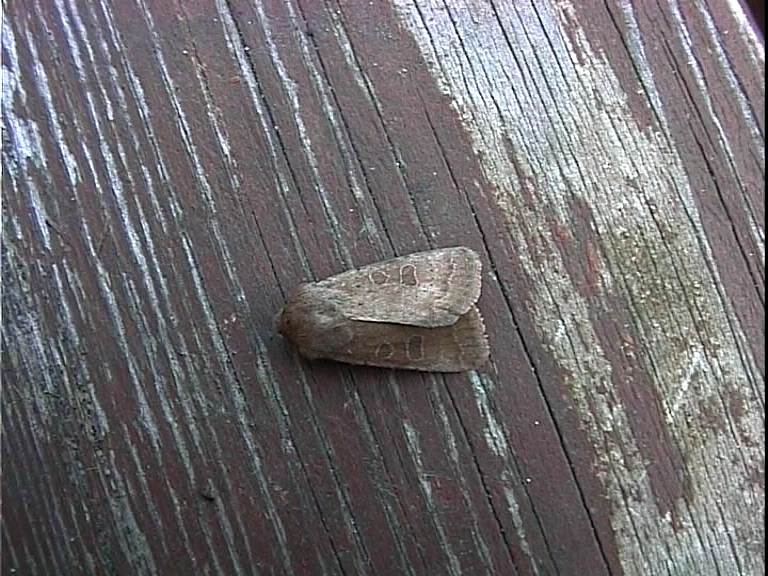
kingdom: Animalia
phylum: Arthropoda
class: Insecta
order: Lepidoptera
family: Noctuidae
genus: Hoplodrina
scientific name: Hoplodrina blanda
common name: Rustic
